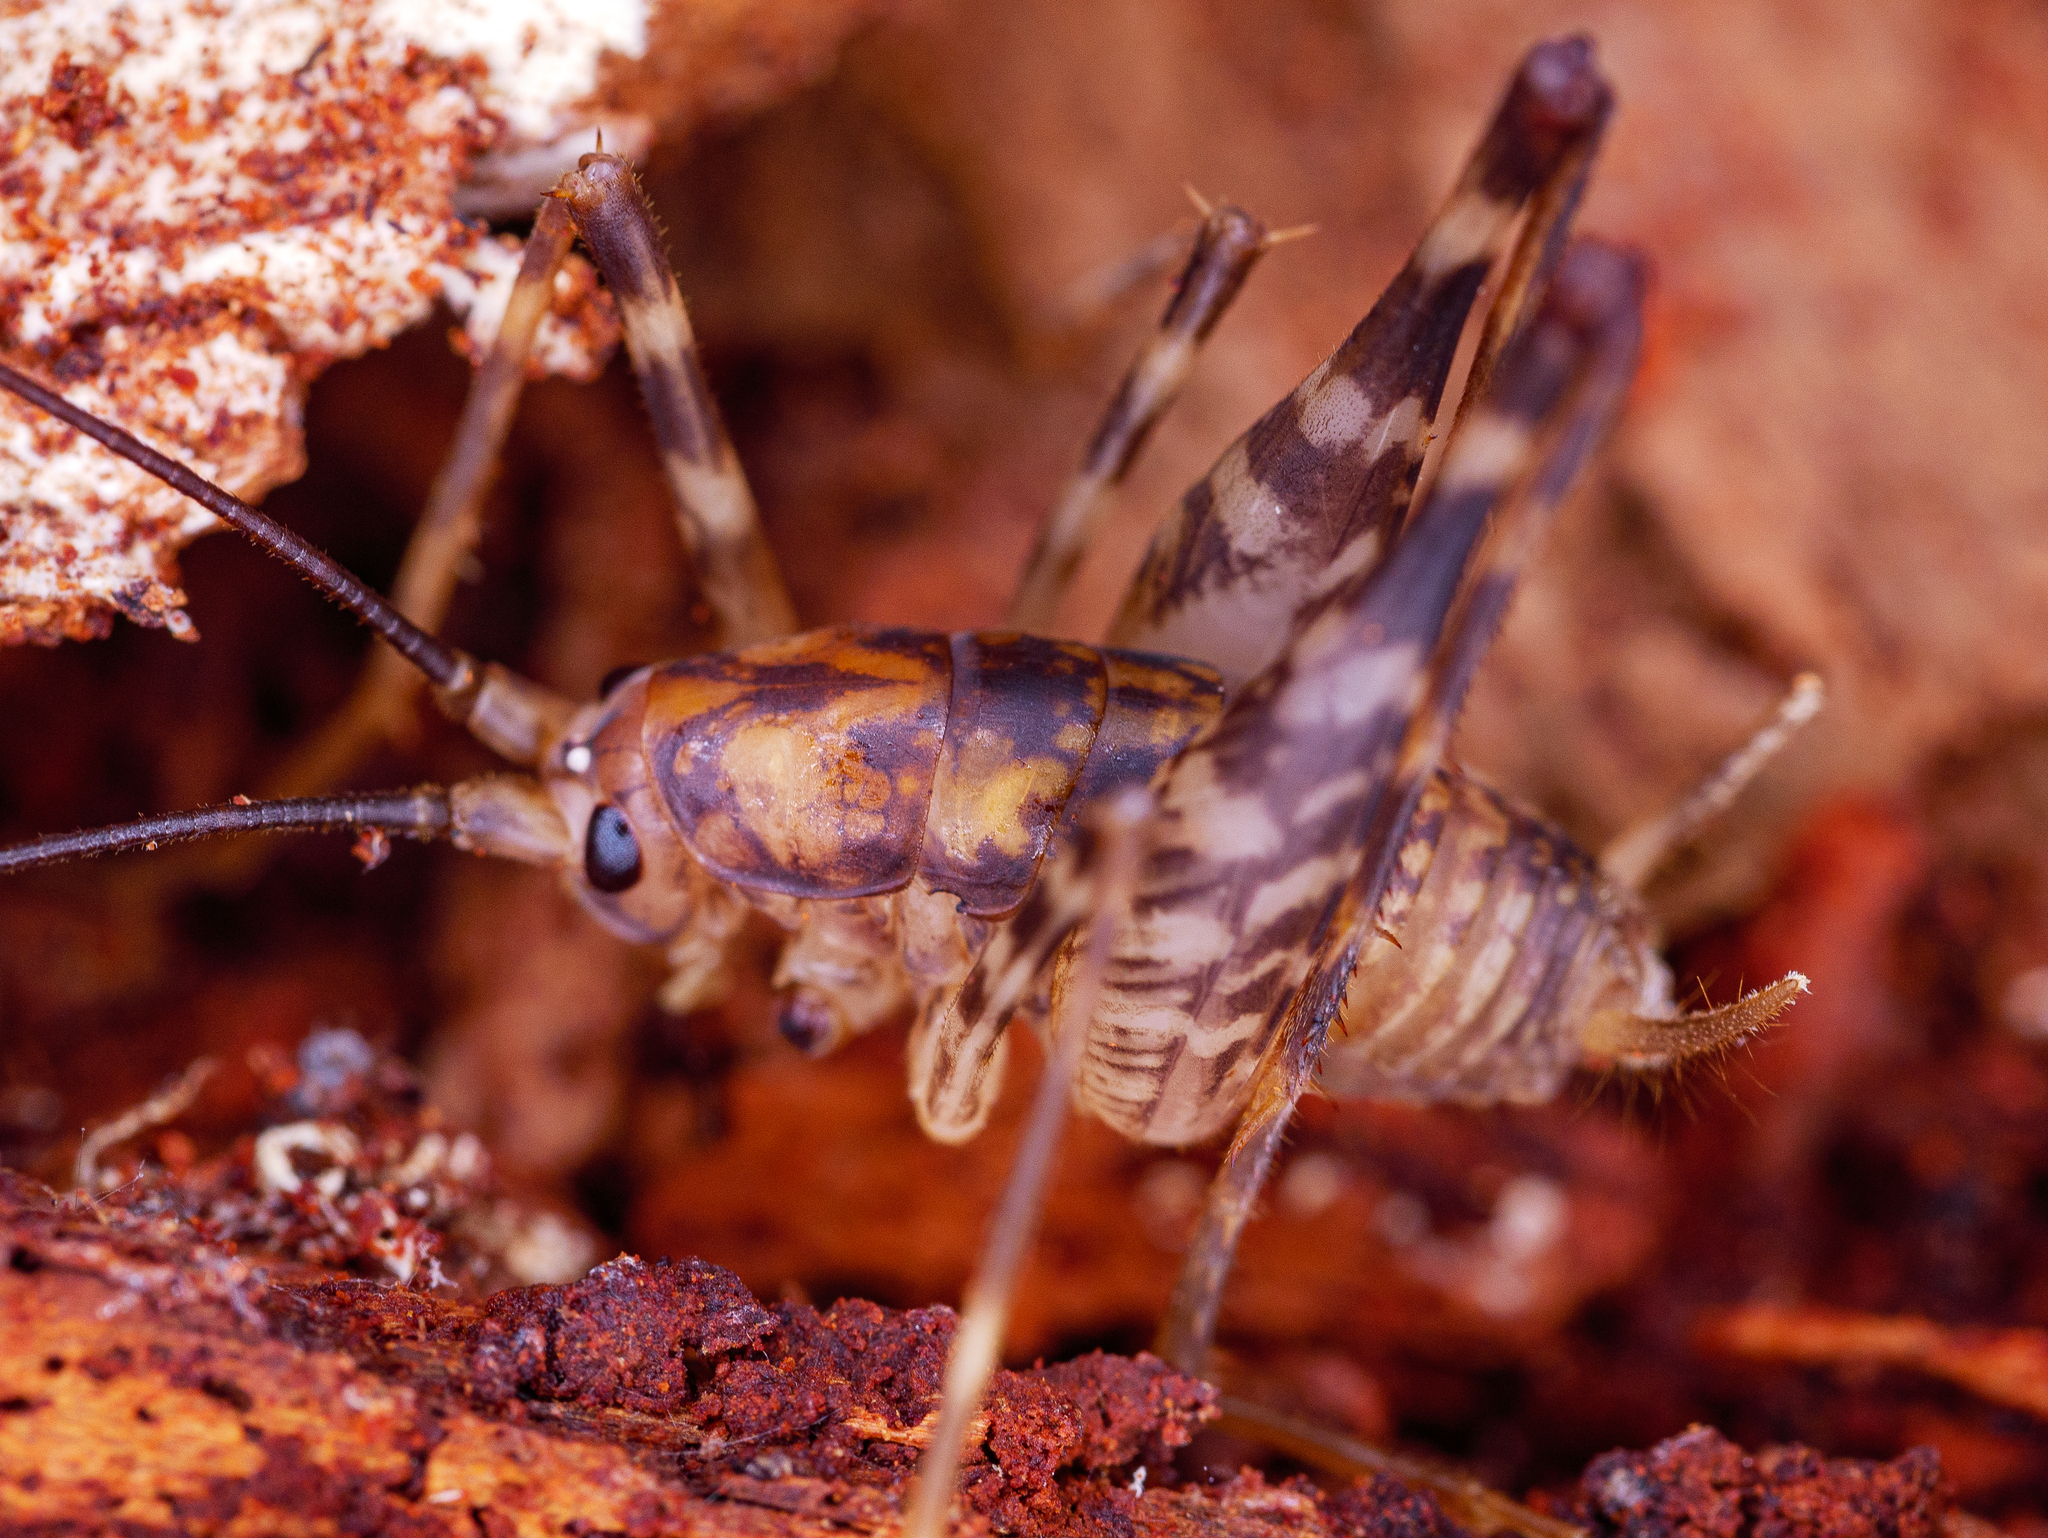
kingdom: Animalia
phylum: Arthropoda
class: Insecta
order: Orthoptera
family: Rhaphidophoridae
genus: Miotopus
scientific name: Miotopus richardsae
